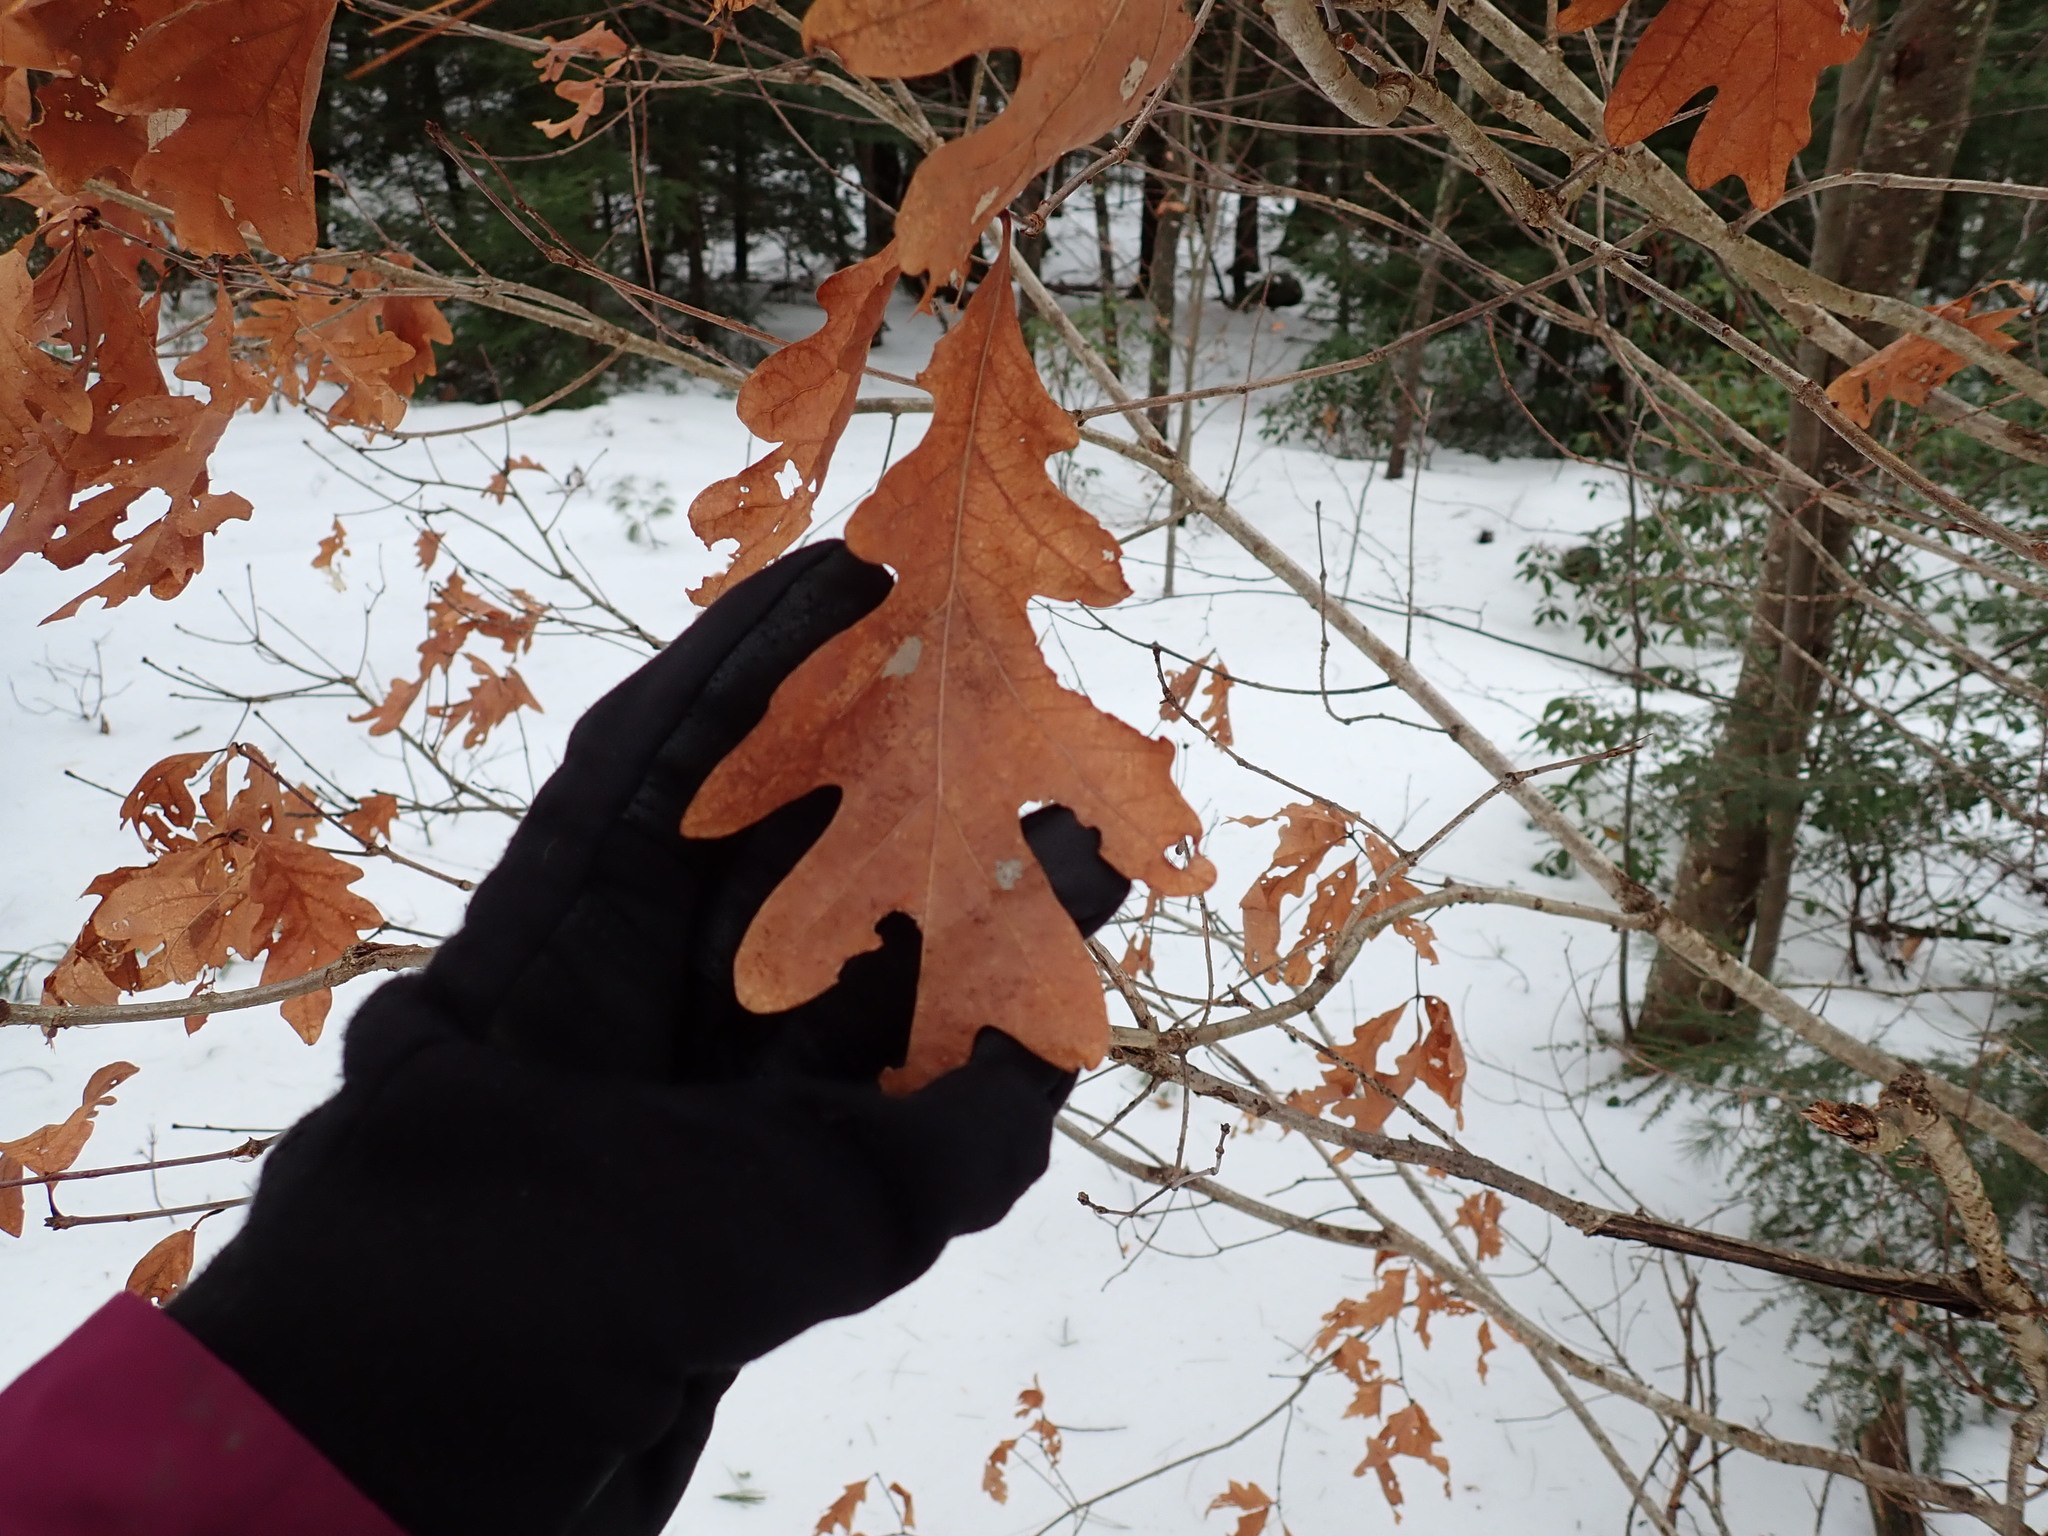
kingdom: Plantae
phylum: Tracheophyta
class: Magnoliopsida
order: Fagales
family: Fagaceae
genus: Quercus
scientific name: Quercus alba
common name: White oak
